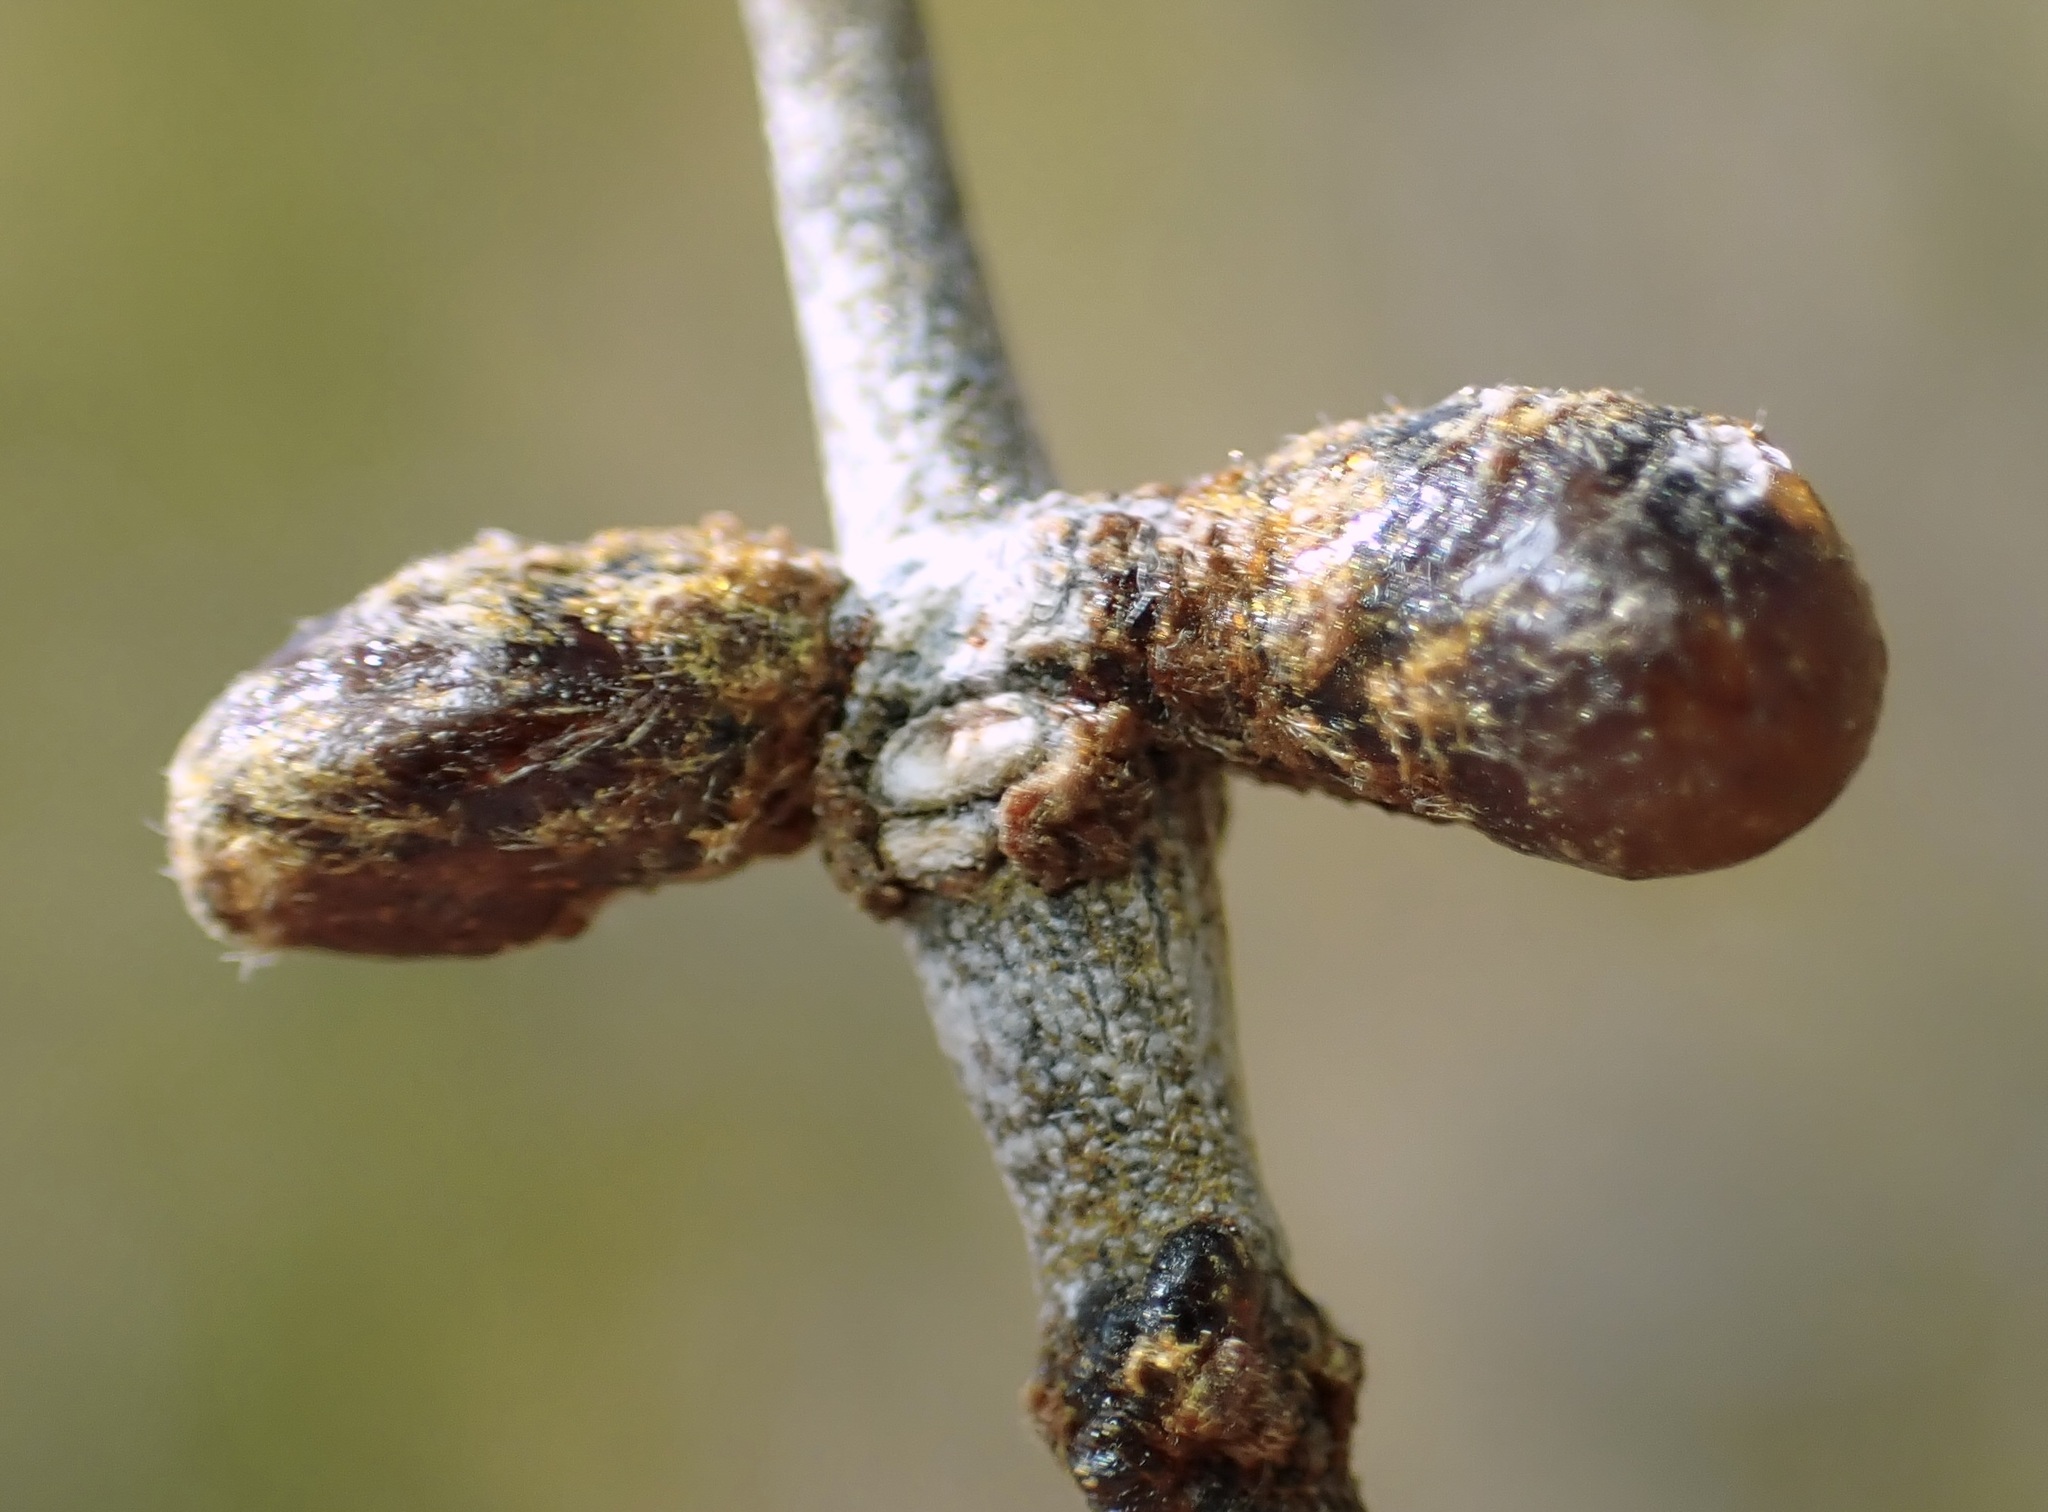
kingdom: Animalia
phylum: Arthropoda
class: Insecta
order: Diptera
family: Cecidomyiidae
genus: Asphondylia
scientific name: Asphondylia resinosa
